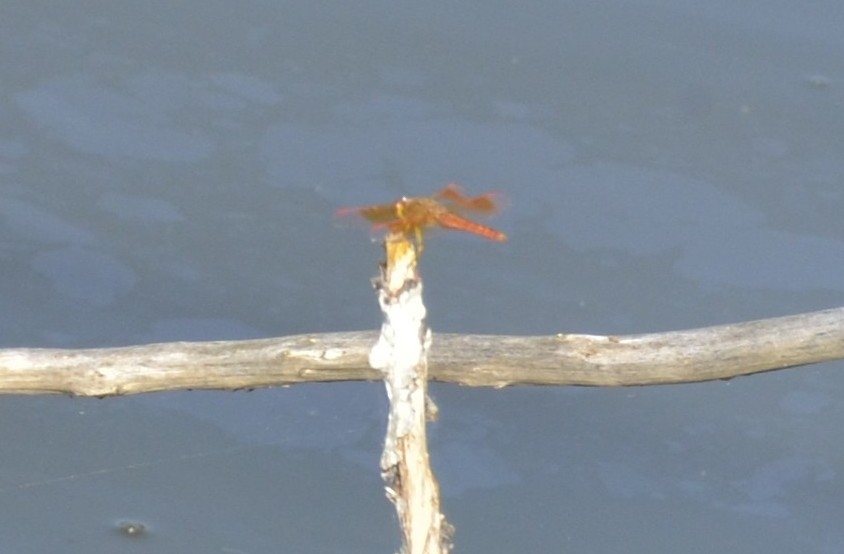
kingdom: Animalia
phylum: Arthropoda
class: Insecta
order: Odonata
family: Libellulidae
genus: Brachythemis
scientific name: Brachythemis contaminata
